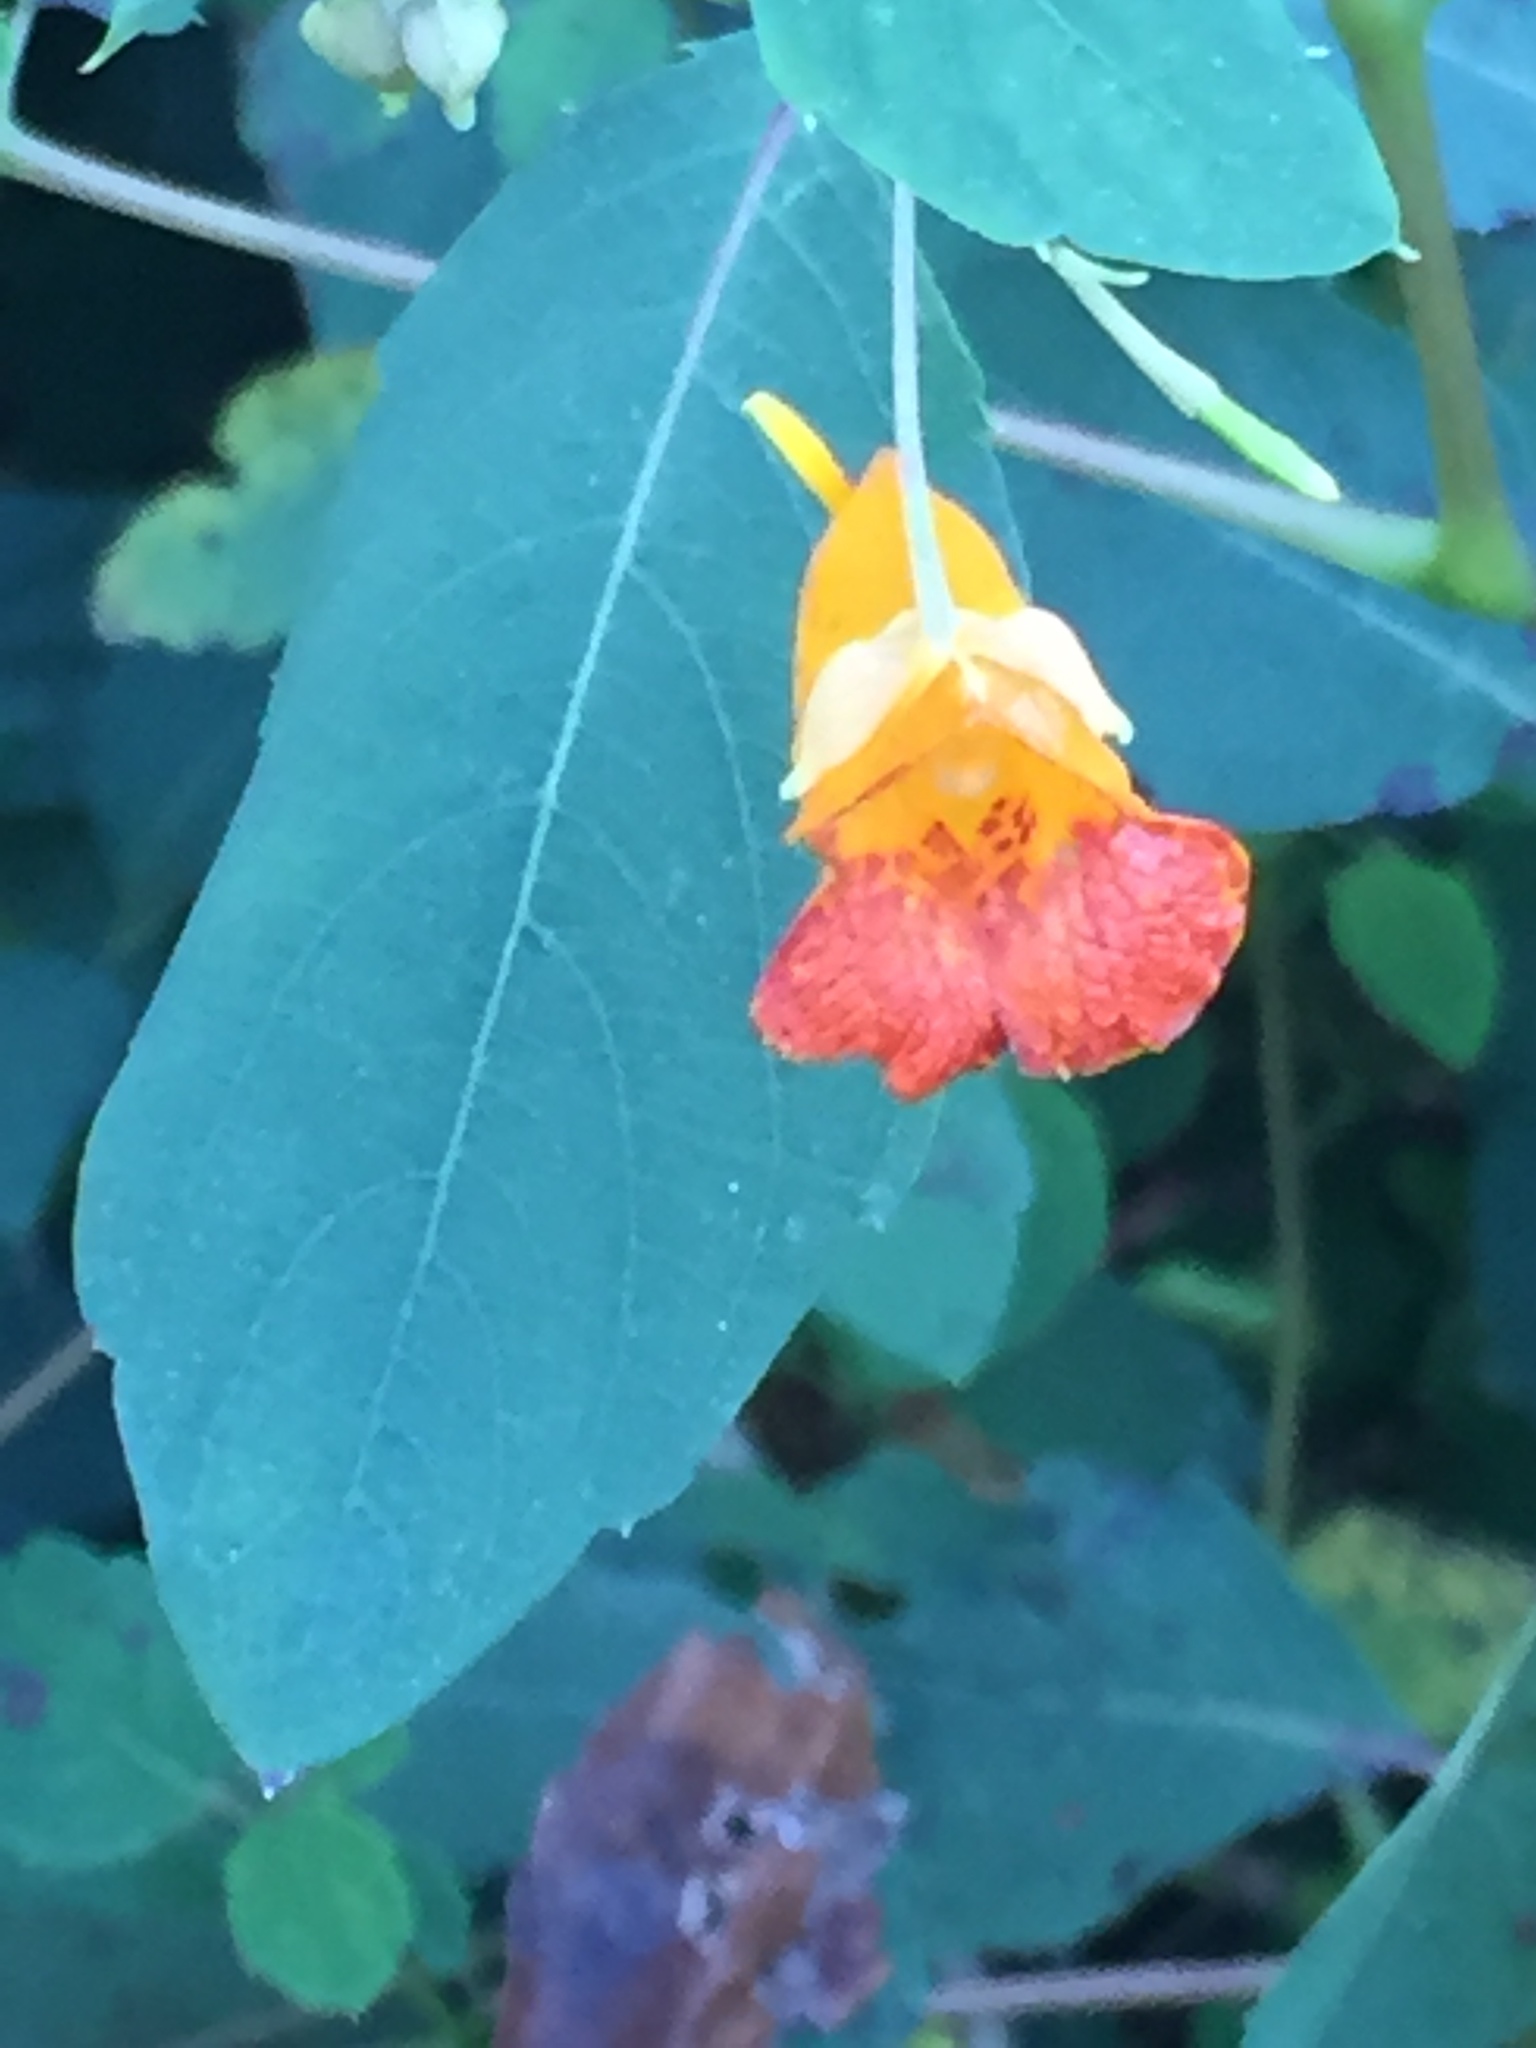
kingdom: Plantae
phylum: Tracheophyta
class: Magnoliopsida
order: Ericales
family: Balsaminaceae
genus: Impatiens
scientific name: Impatiens capensis
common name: Orange balsam
